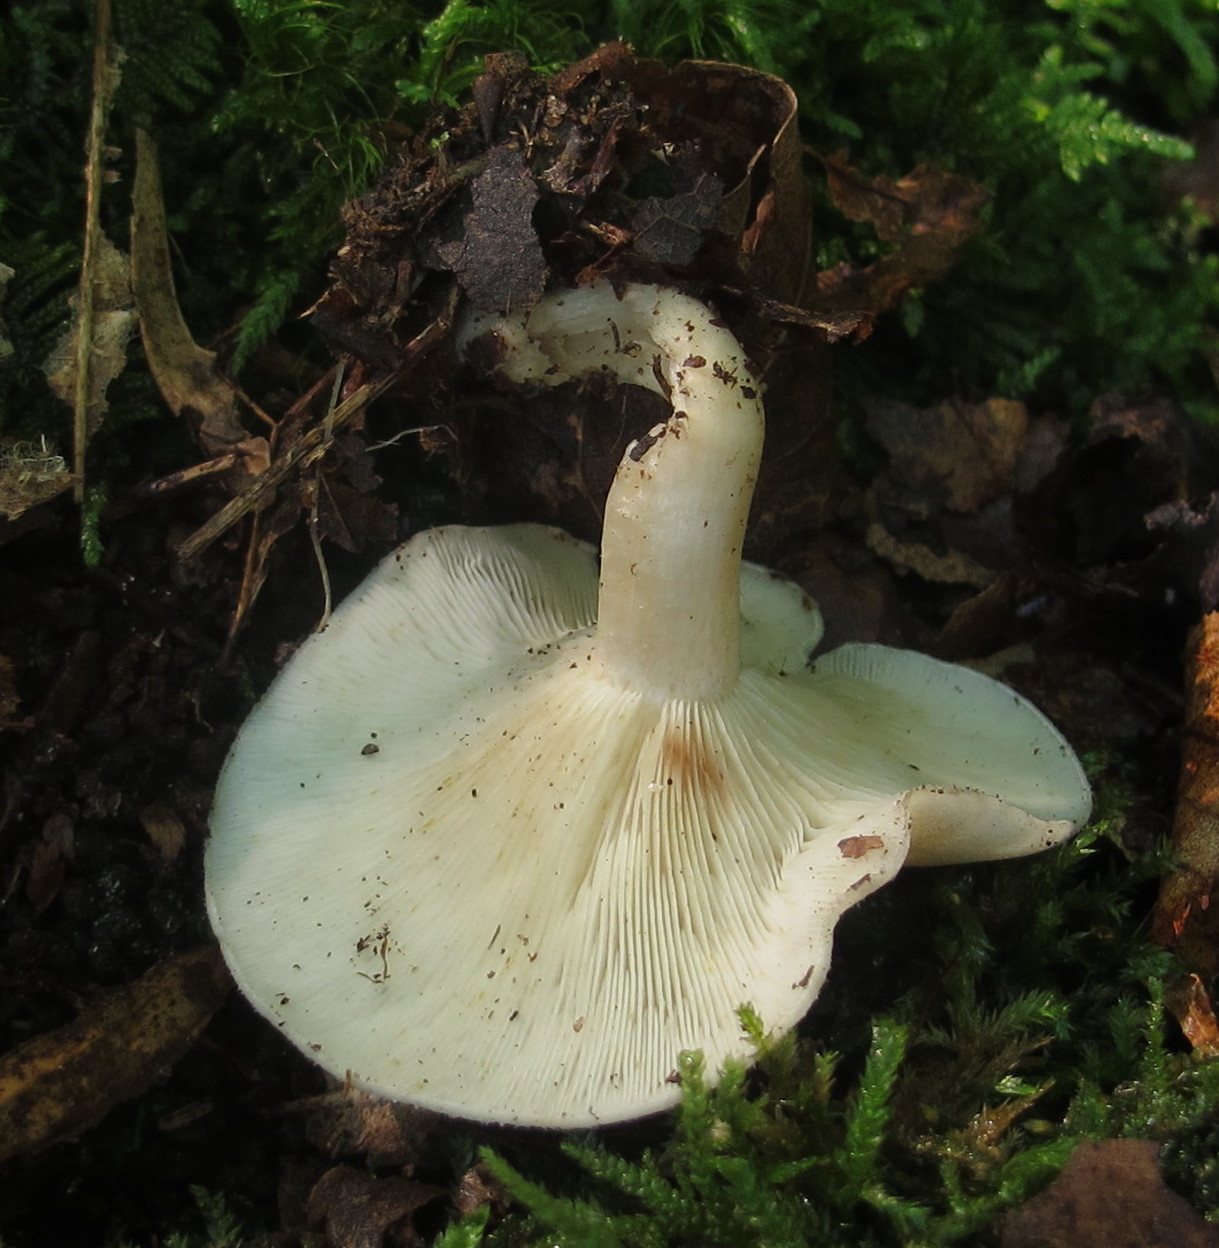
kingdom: Fungi
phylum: Basidiomycota
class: Agaricomycetes
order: Agaricales
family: Tricholomataceae
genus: Collybia
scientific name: Collybia
